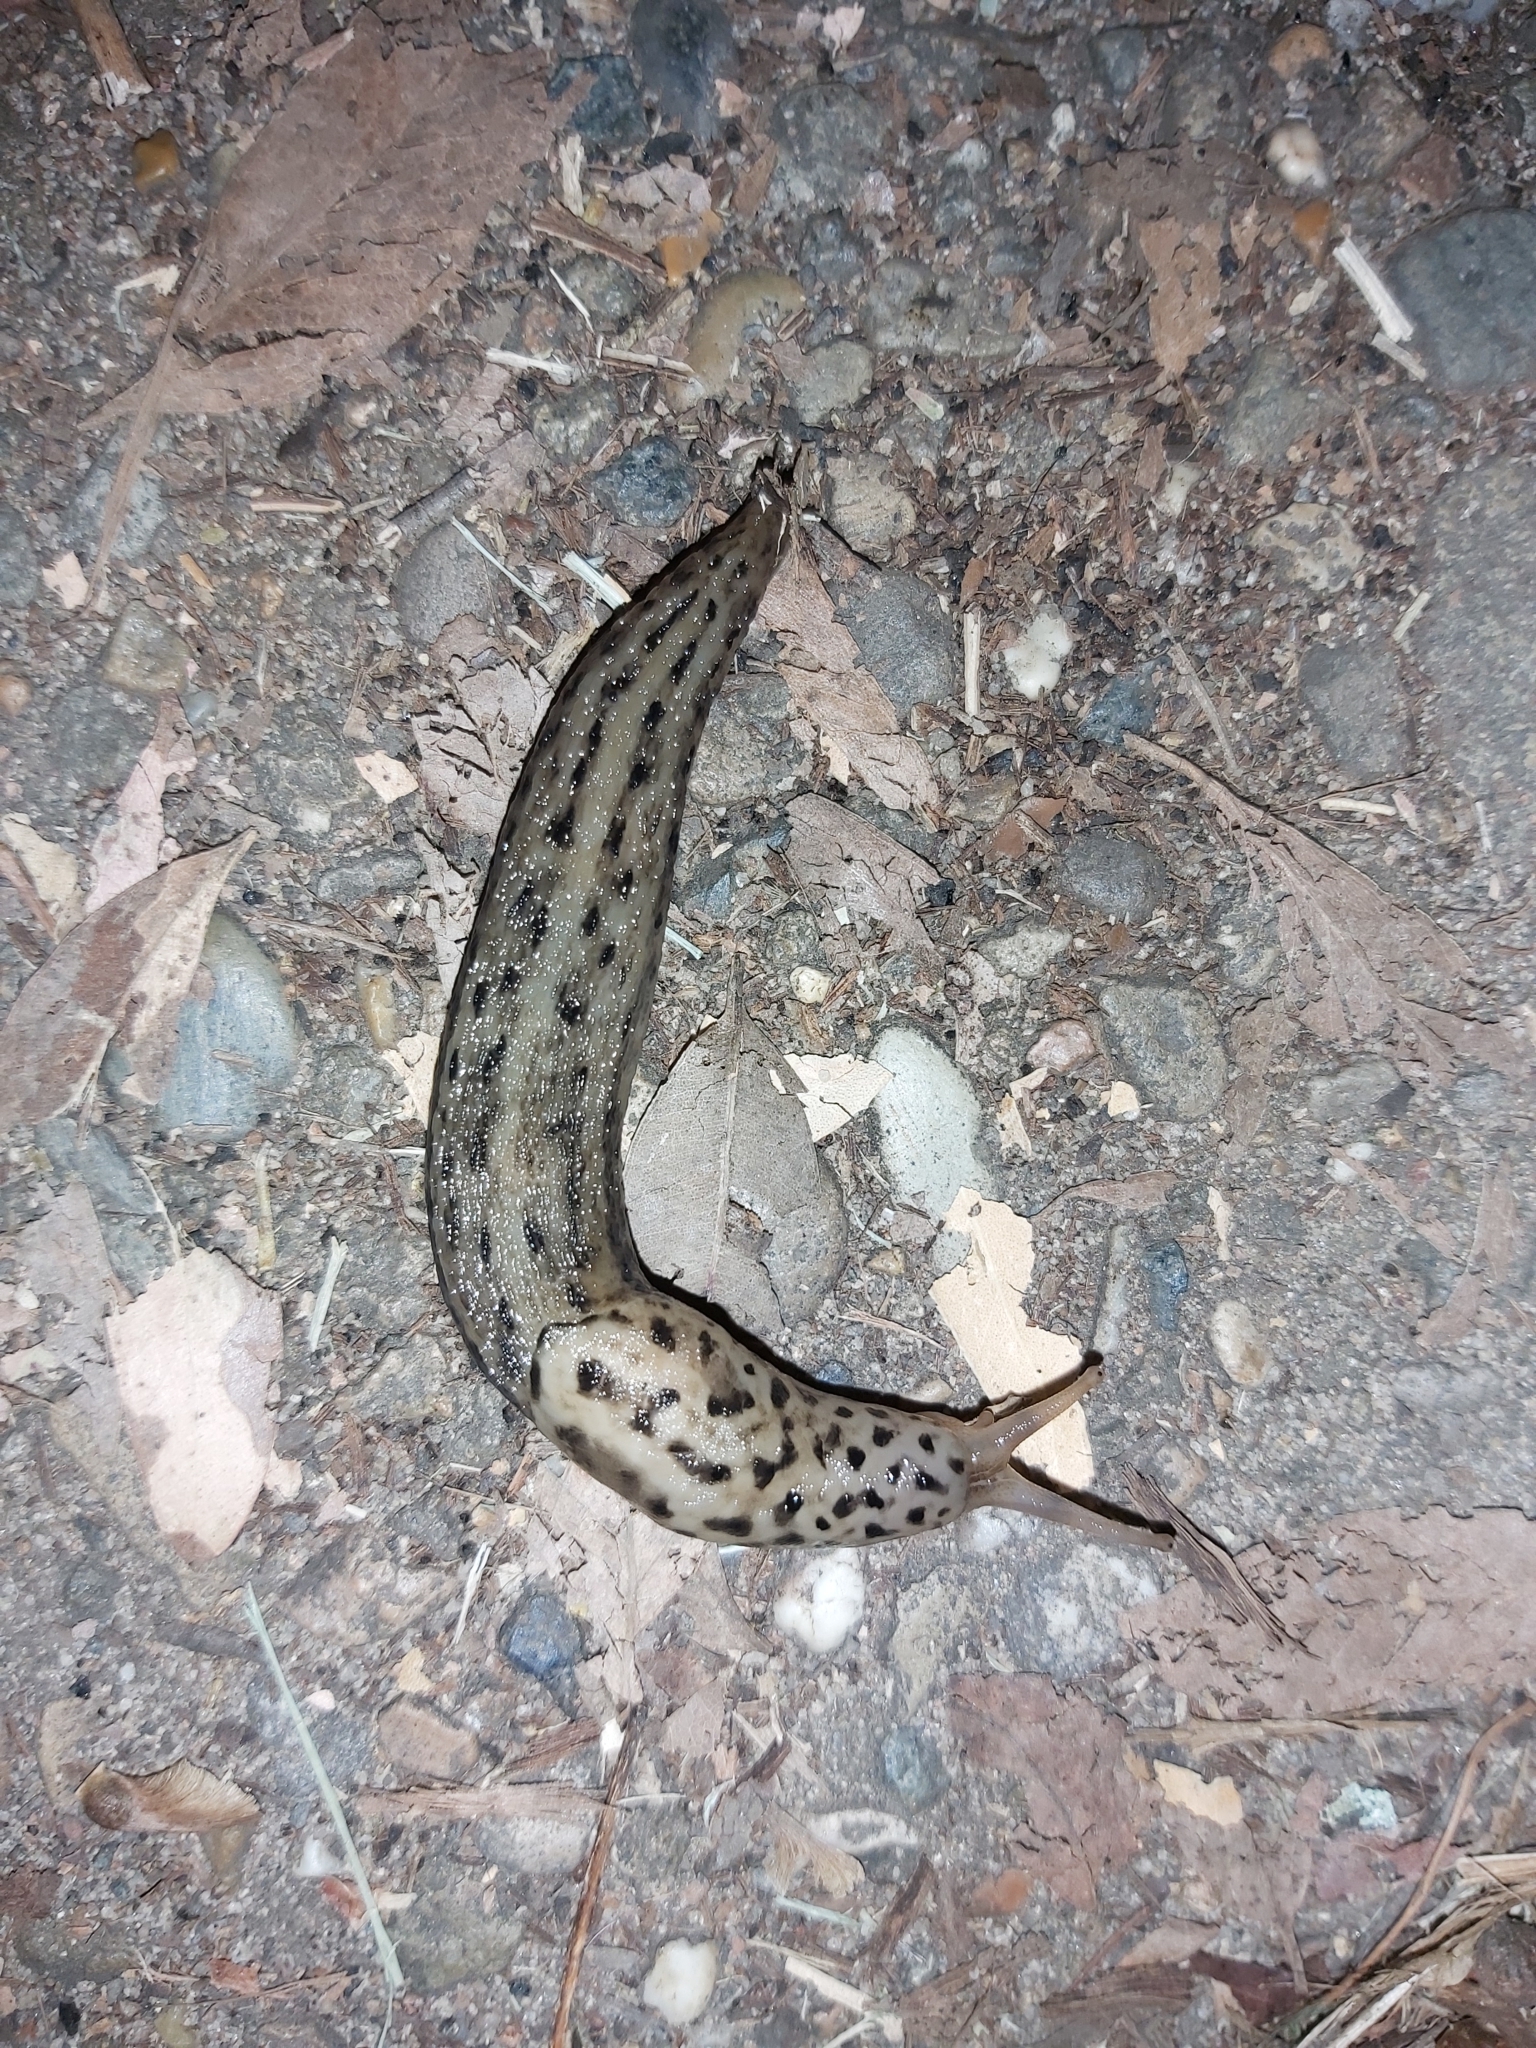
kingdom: Animalia
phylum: Mollusca
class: Gastropoda
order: Stylommatophora
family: Limacidae
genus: Limax
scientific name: Limax maximus
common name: Great grey slug
